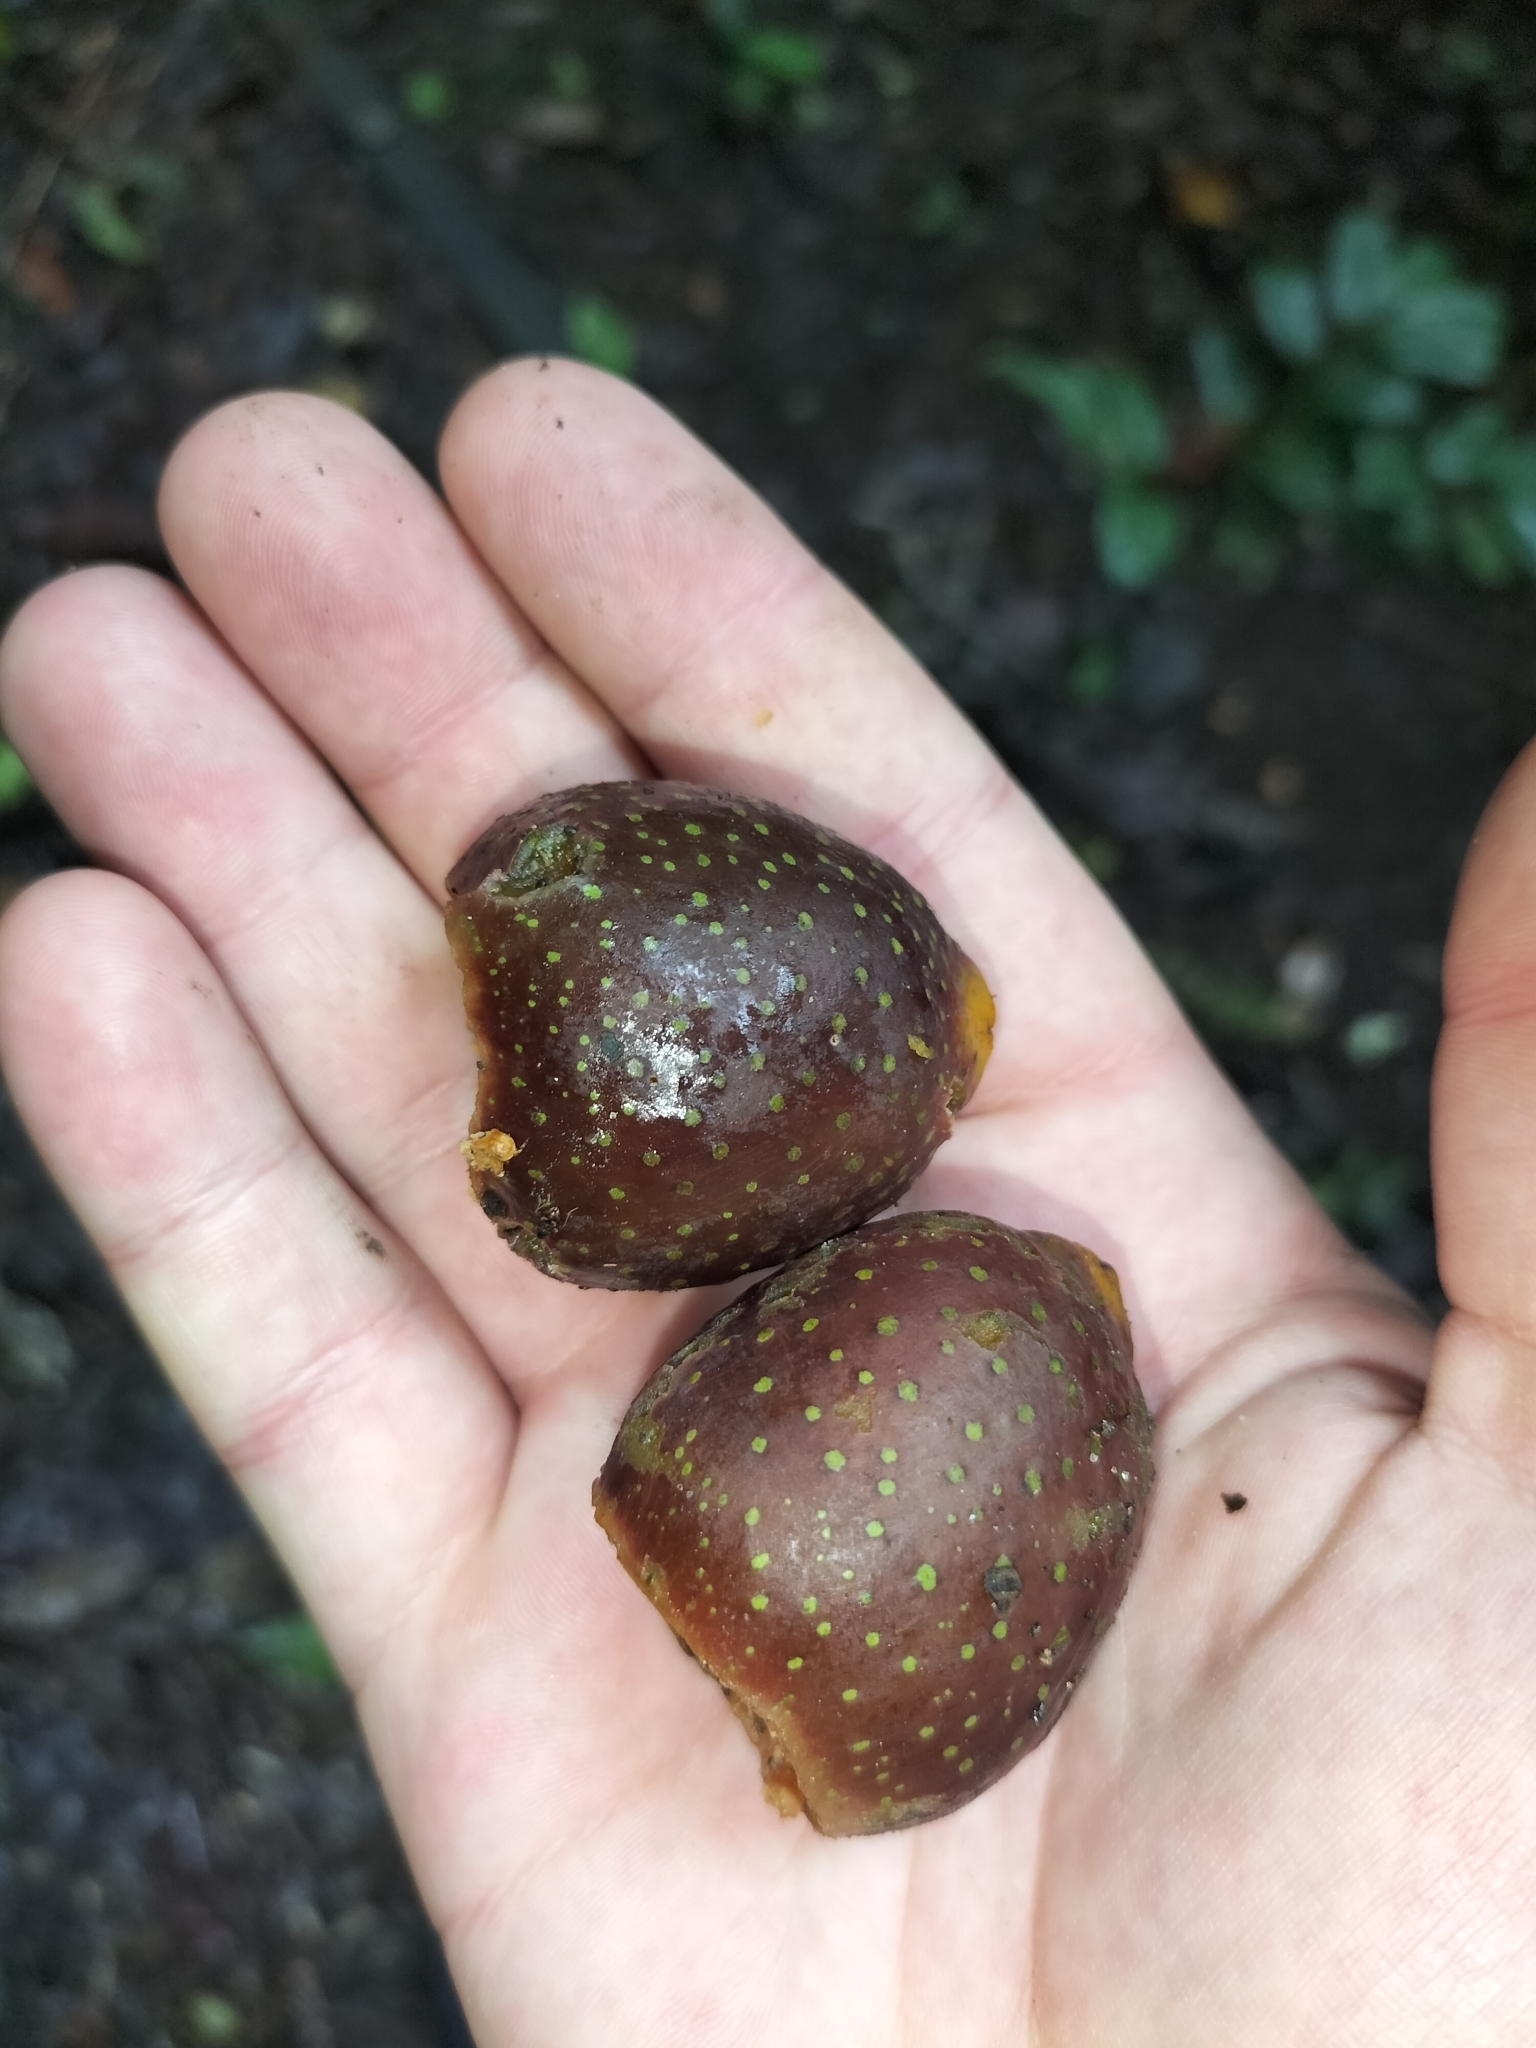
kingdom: Plantae
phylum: Tracheophyta
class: Magnoliopsida
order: Rosales
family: Moraceae
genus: Ficus
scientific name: Ficus watkinsiana
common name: Watkins fig
